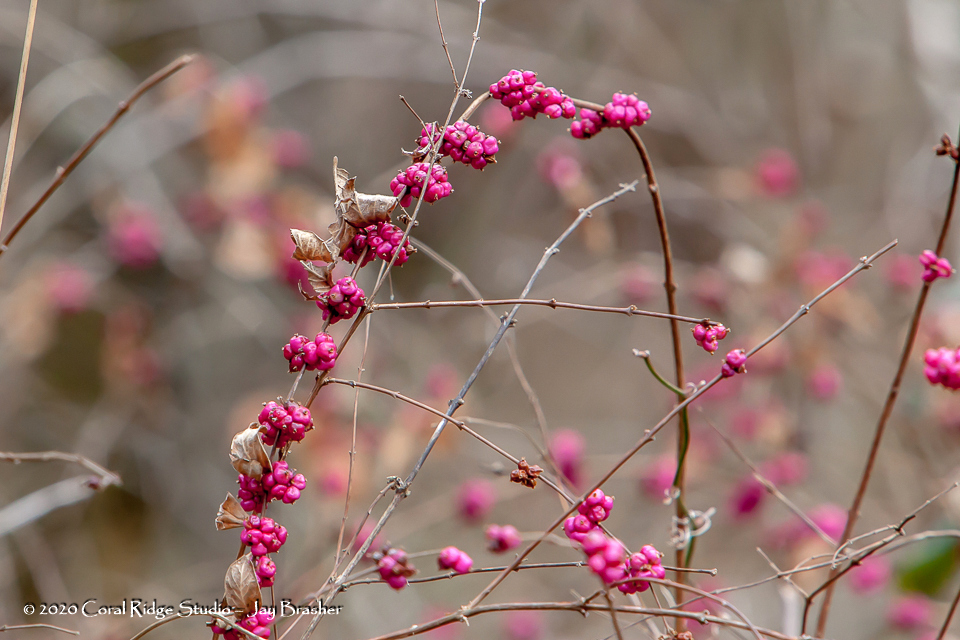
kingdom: Plantae
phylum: Tracheophyta
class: Magnoliopsida
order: Dipsacales
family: Caprifoliaceae
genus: Symphoricarpos
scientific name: Symphoricarpos orbiculatus
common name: Coralberry
